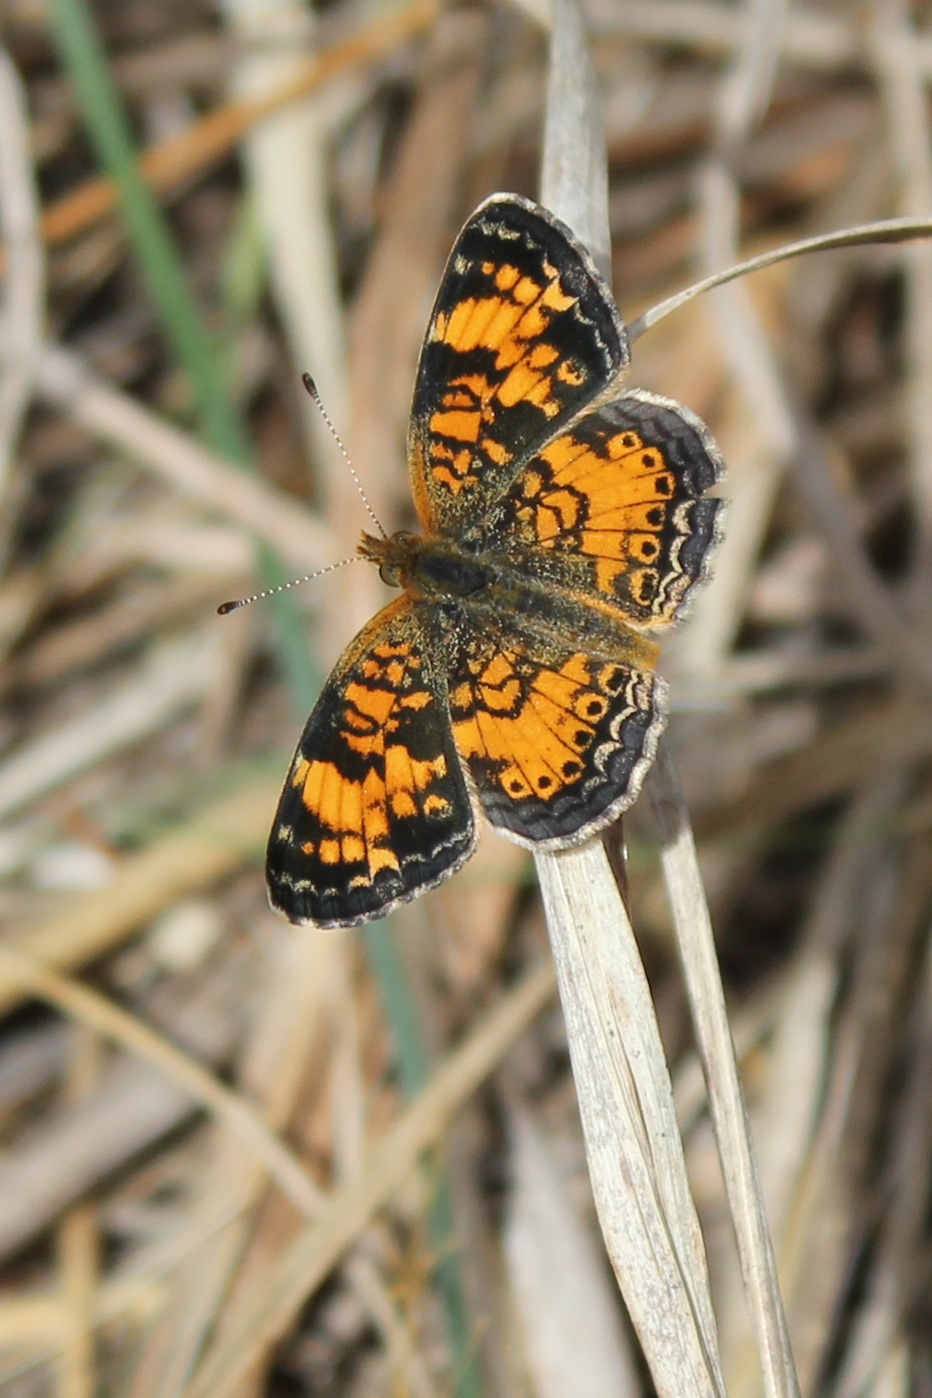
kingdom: Animalia
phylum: Arthropoda
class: Insecta
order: Lepidoptera
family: Nymphalidae
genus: Phyciodes
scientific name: Phyciodes tharos
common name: Pearl crescent
